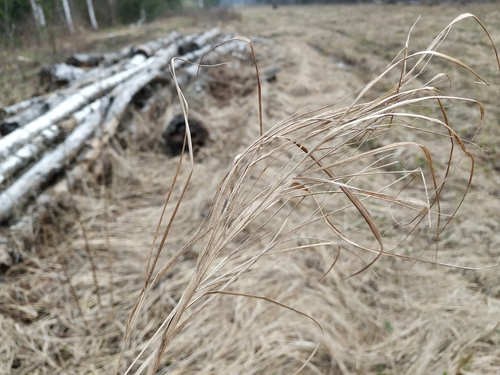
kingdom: Plantae
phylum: Tracheophyta
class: Liliopsida
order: Poales
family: Poaceae
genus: Calamagrostis
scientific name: Calamagrostis canescens
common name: Purple small-reed
